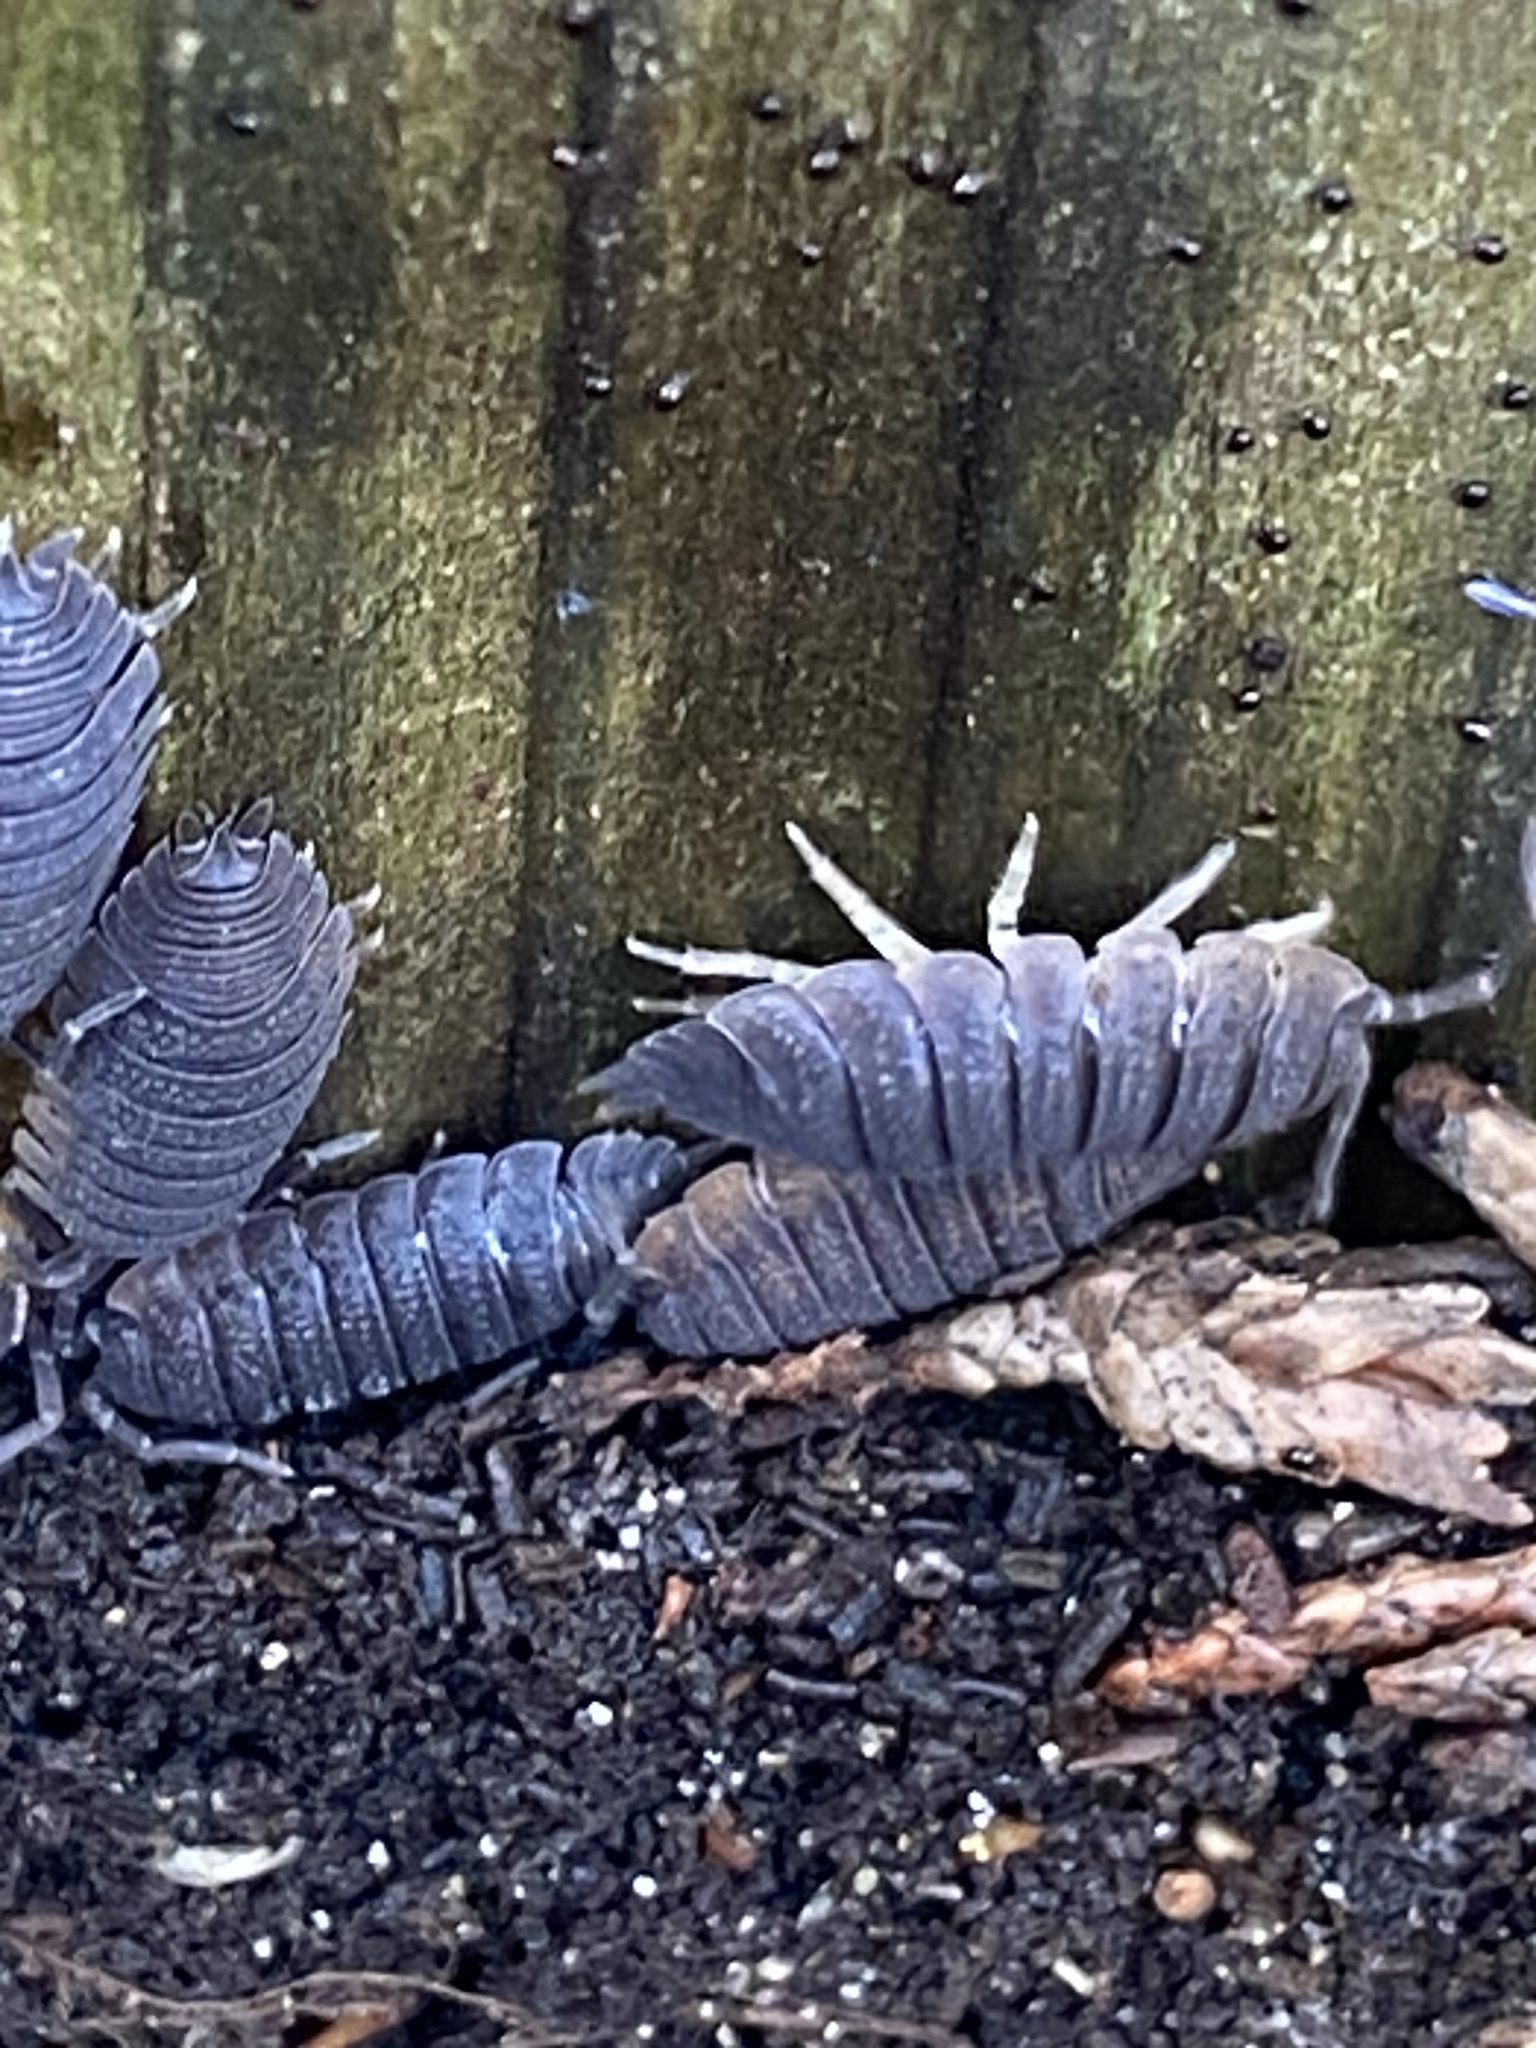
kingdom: Animalia
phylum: Arthropoda
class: Malacostraca
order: Isopoda
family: Porcellionidae
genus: Porcellio
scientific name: Porcellio scaber
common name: Common rough woodlouse
